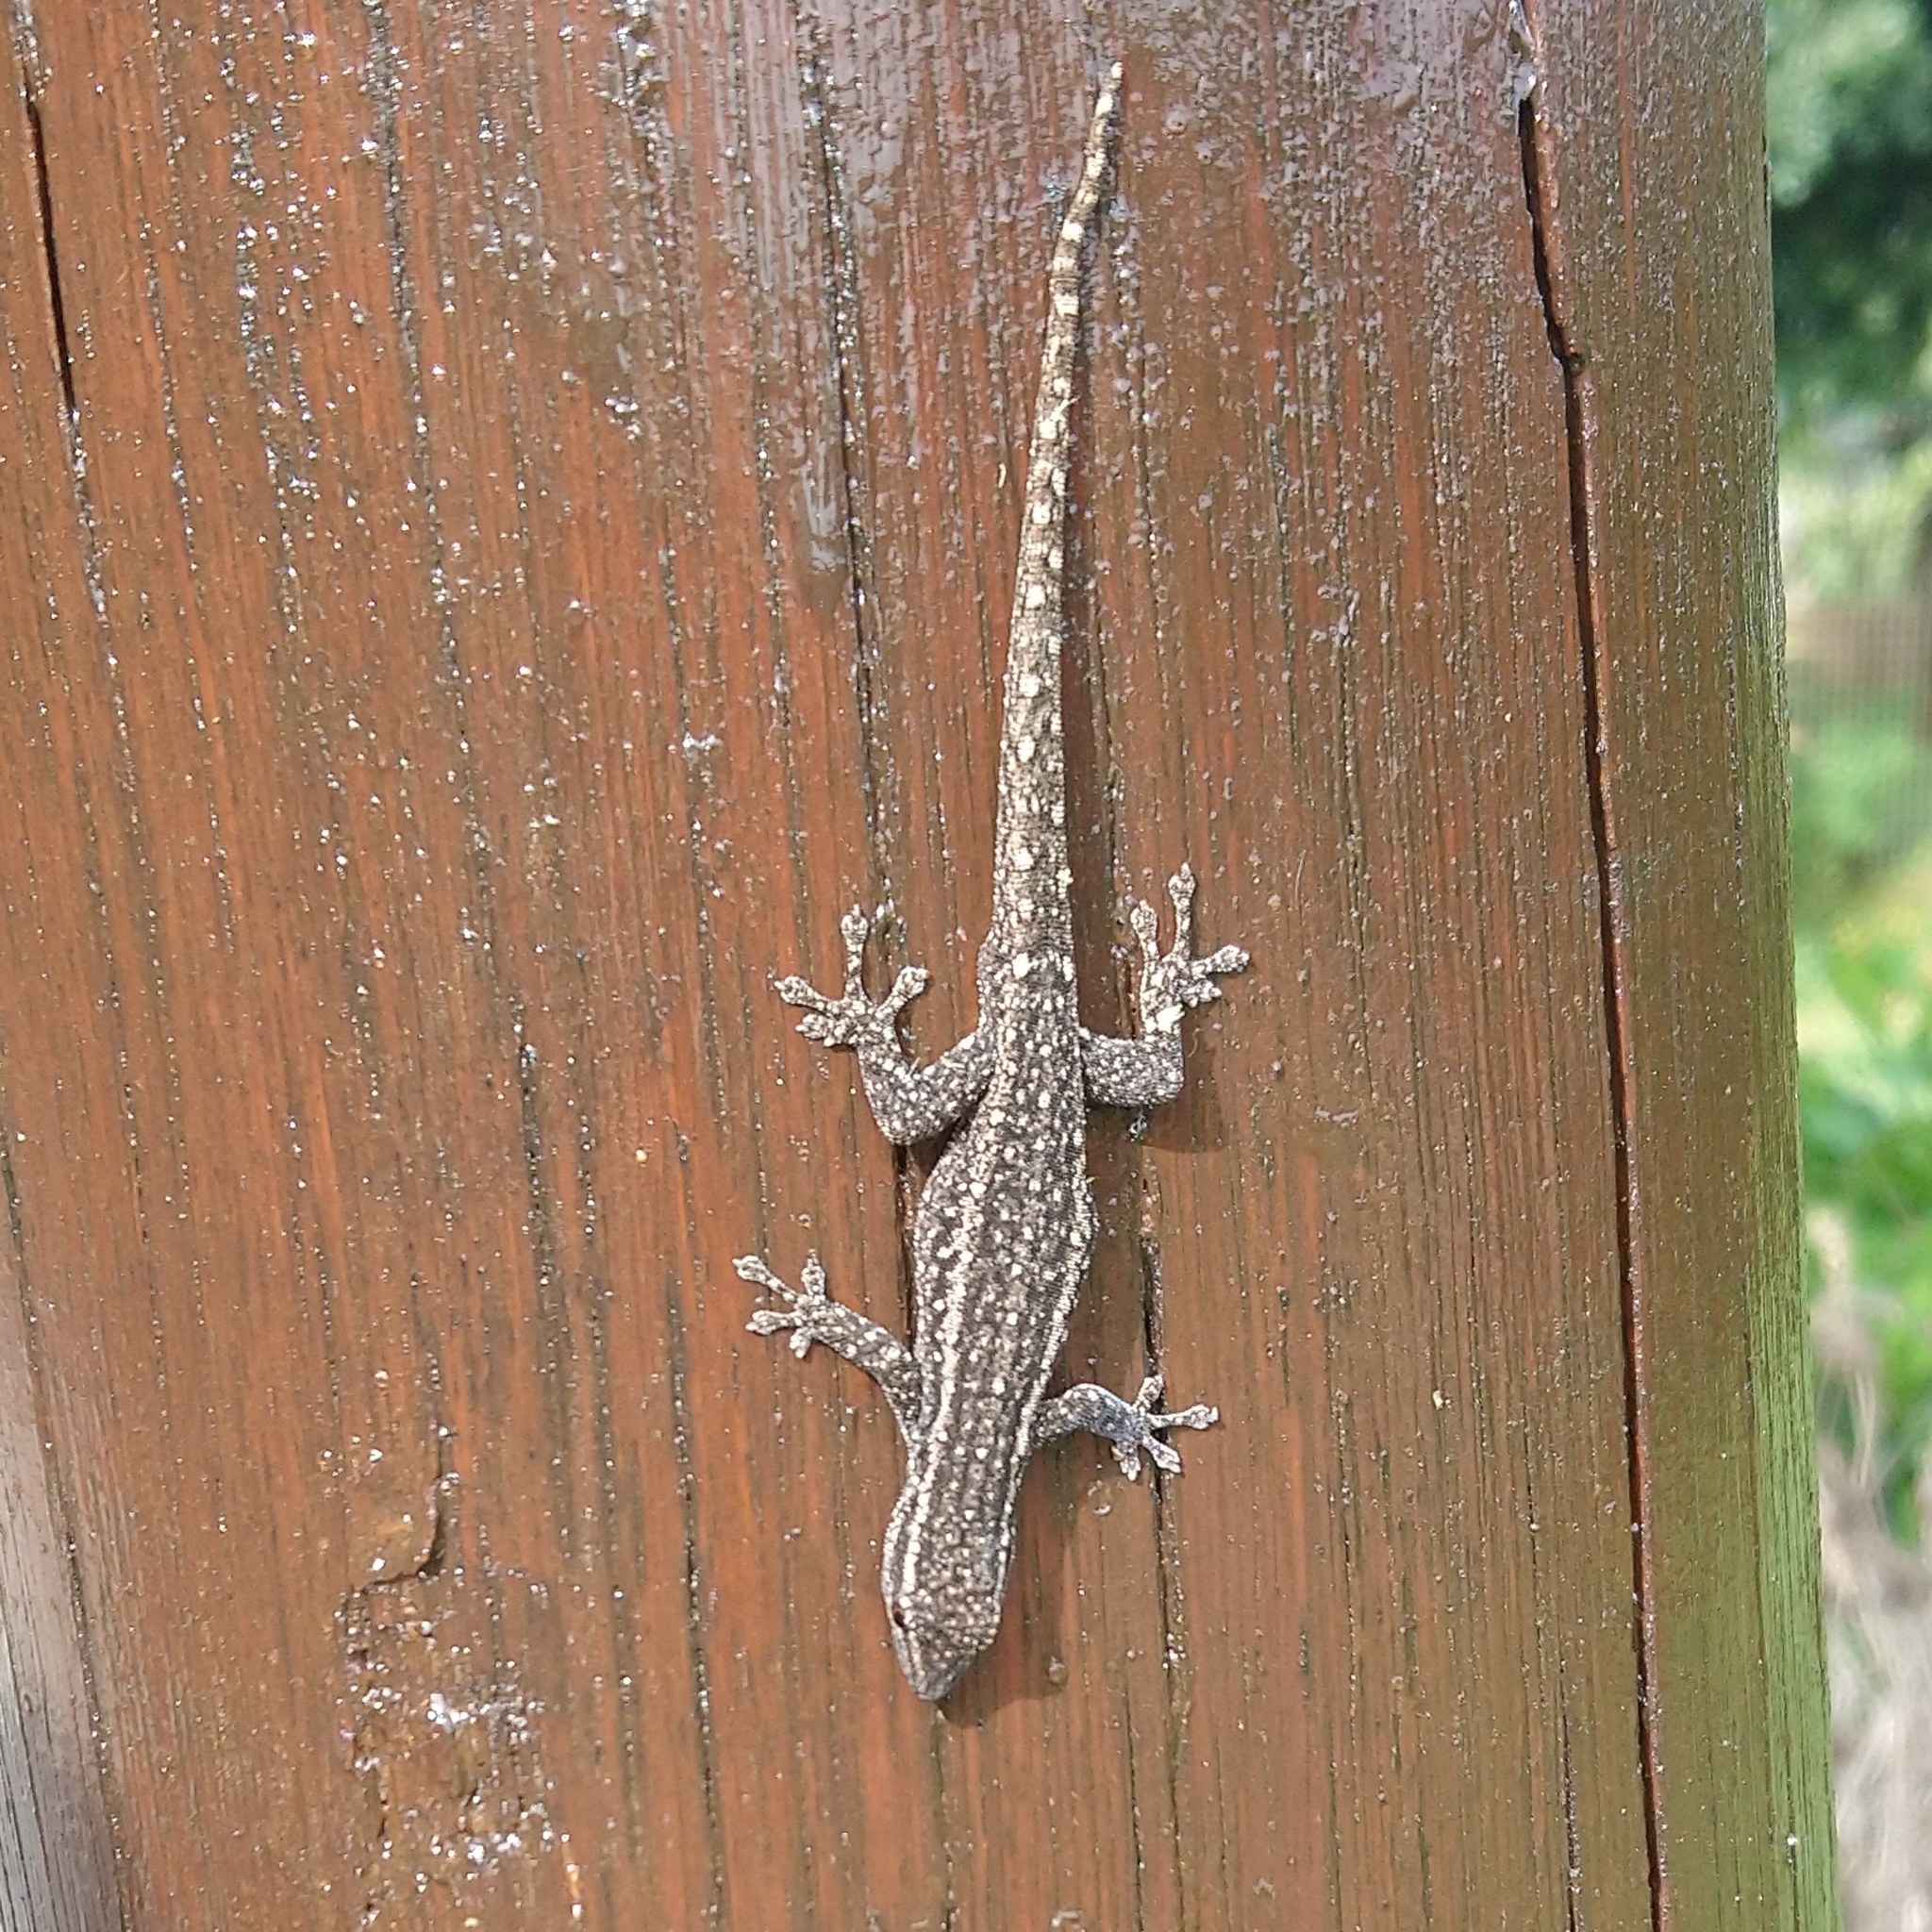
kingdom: Animalia
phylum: Chordata
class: Squamata
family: Gekkonidae
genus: Lygodactylus
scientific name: Lygodactylus capensis
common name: Cape dwarf gecko
